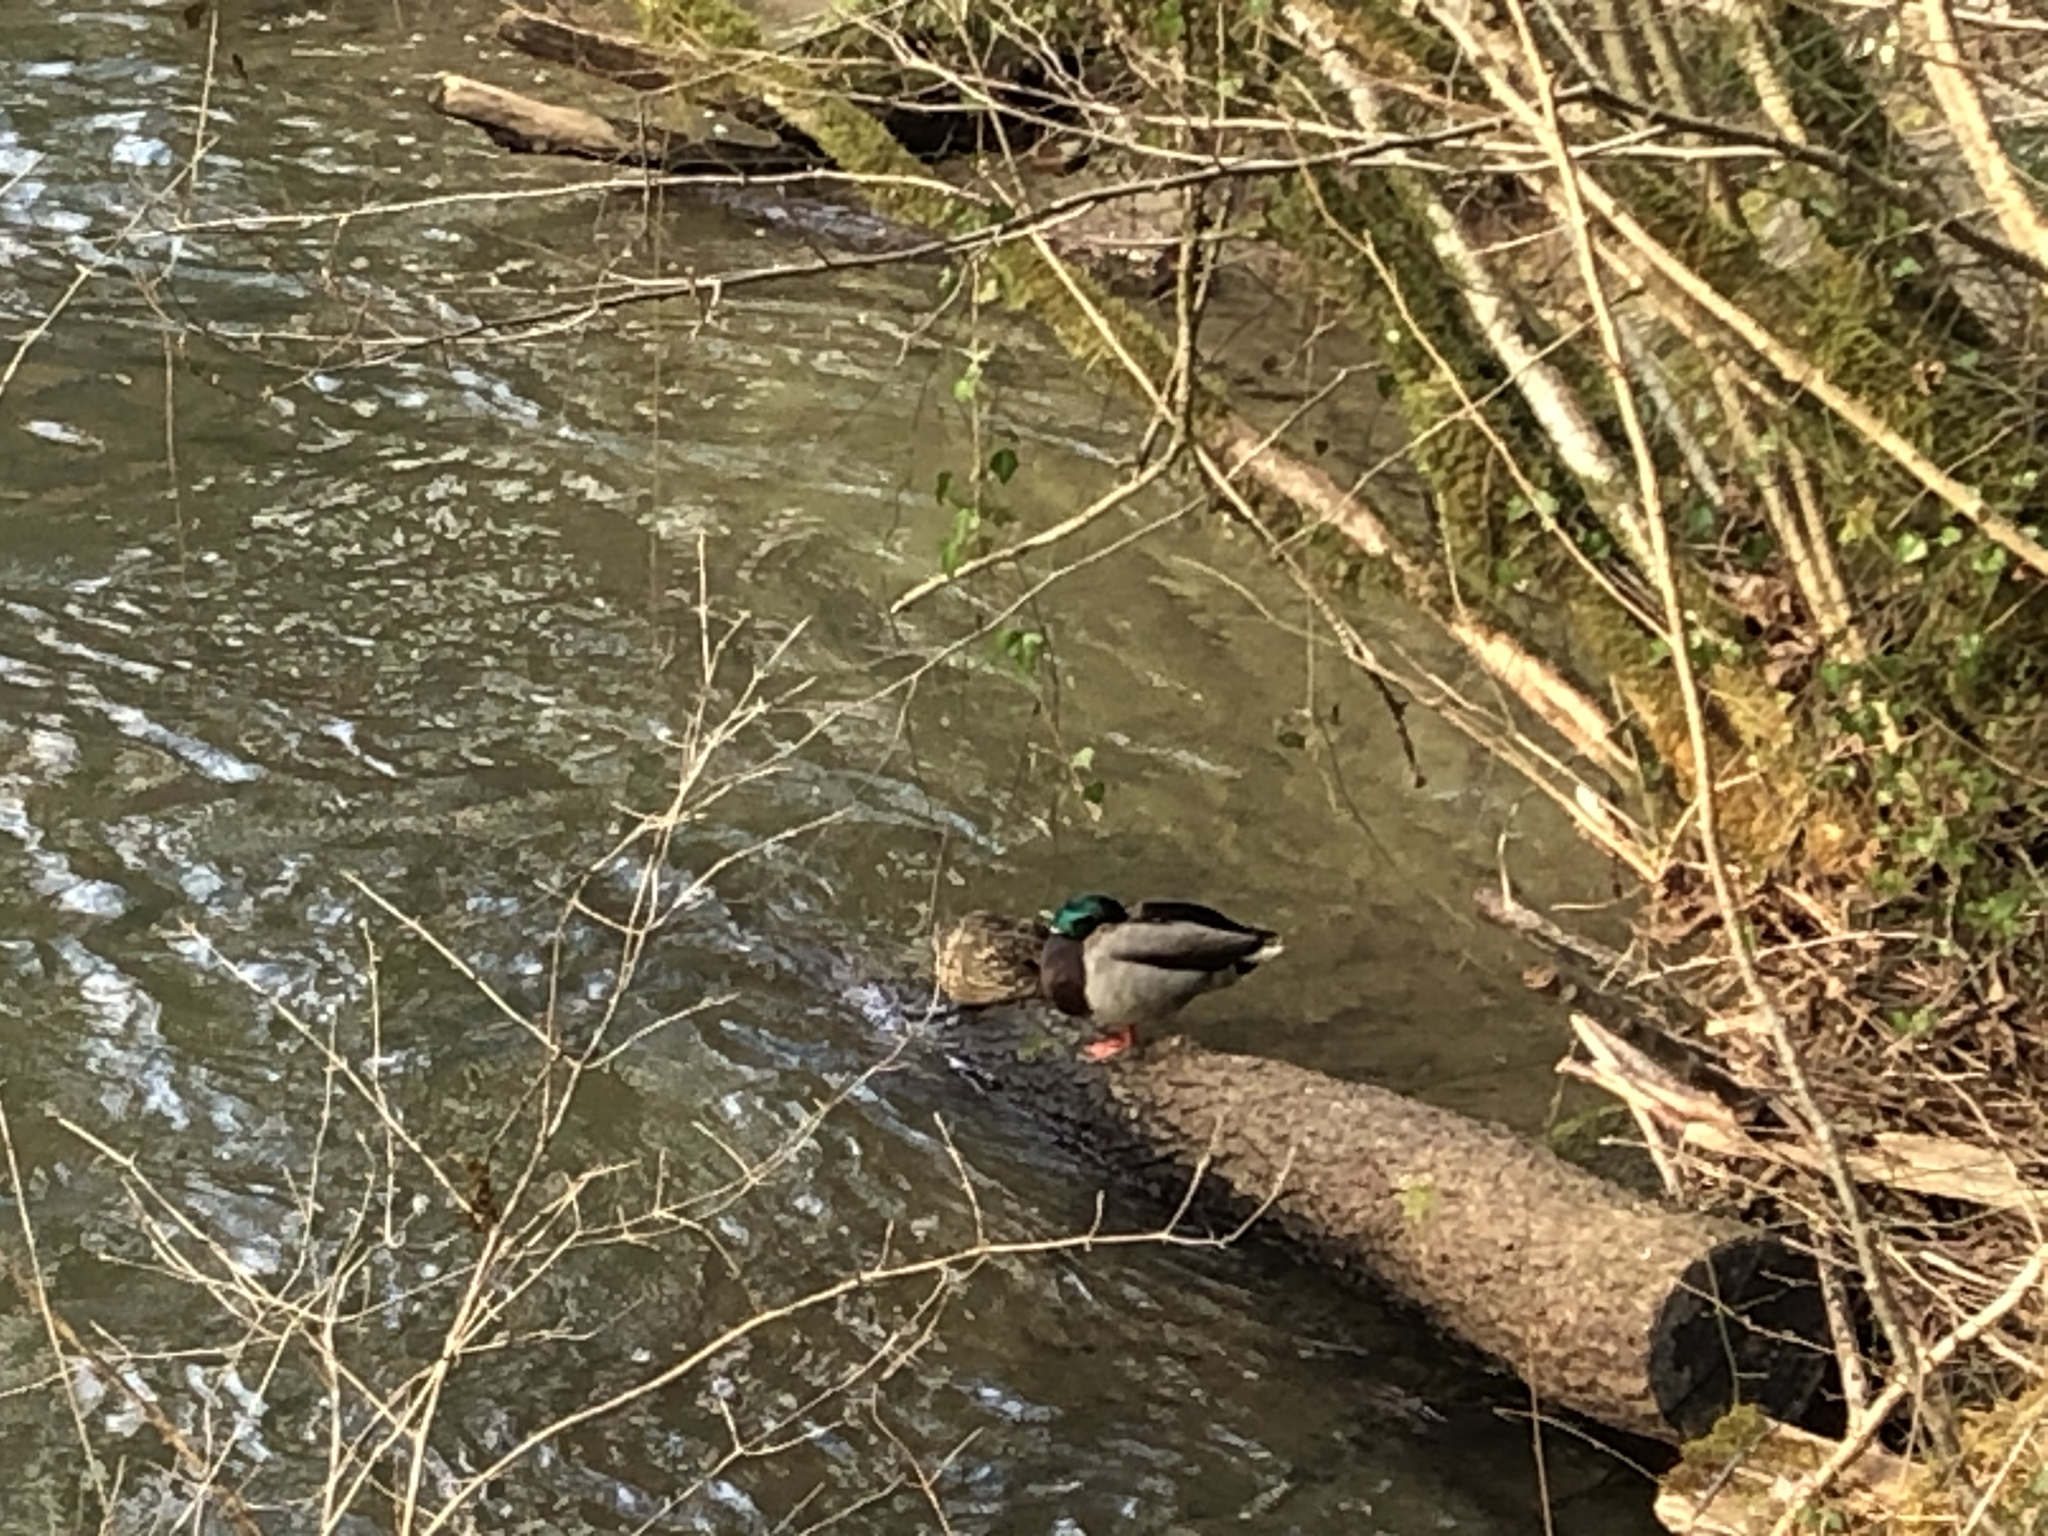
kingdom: Animalia
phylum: Chordata
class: Aves
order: Anseriformes
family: Anatidae
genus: Anas
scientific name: Anas platyrhynchos
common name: Mallard
